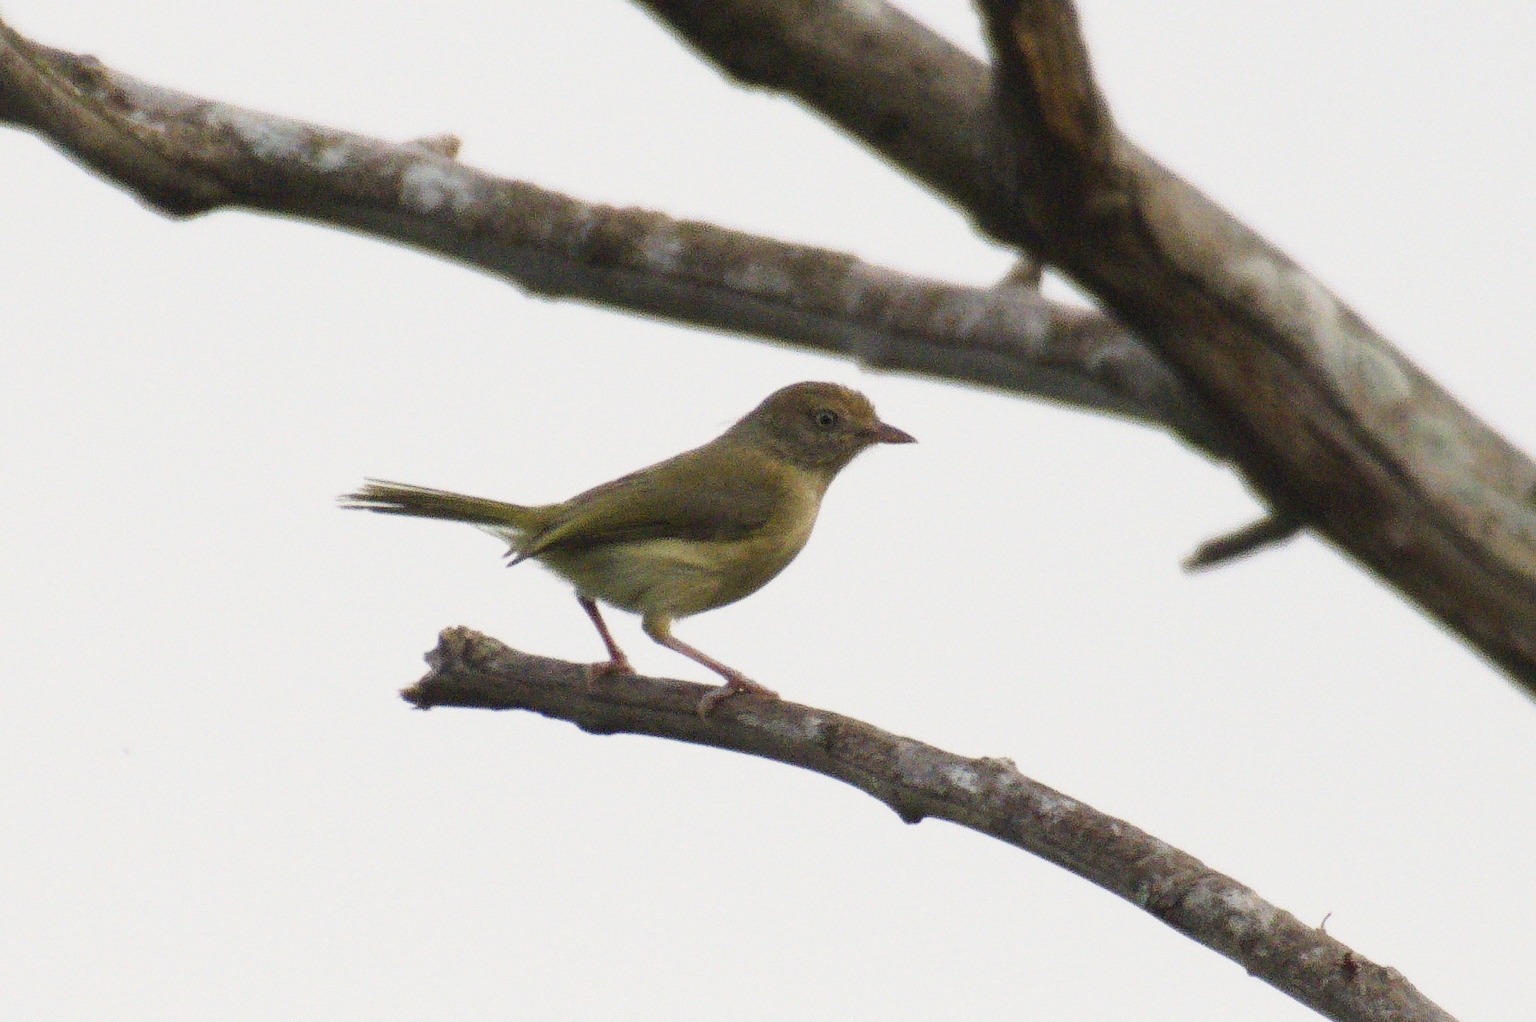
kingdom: Animalia
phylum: Chordata
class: Aves
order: Passeriformes
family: Vireonidae
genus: Hylophilus
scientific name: Hylophilus flavipes
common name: Scrub greenlet
